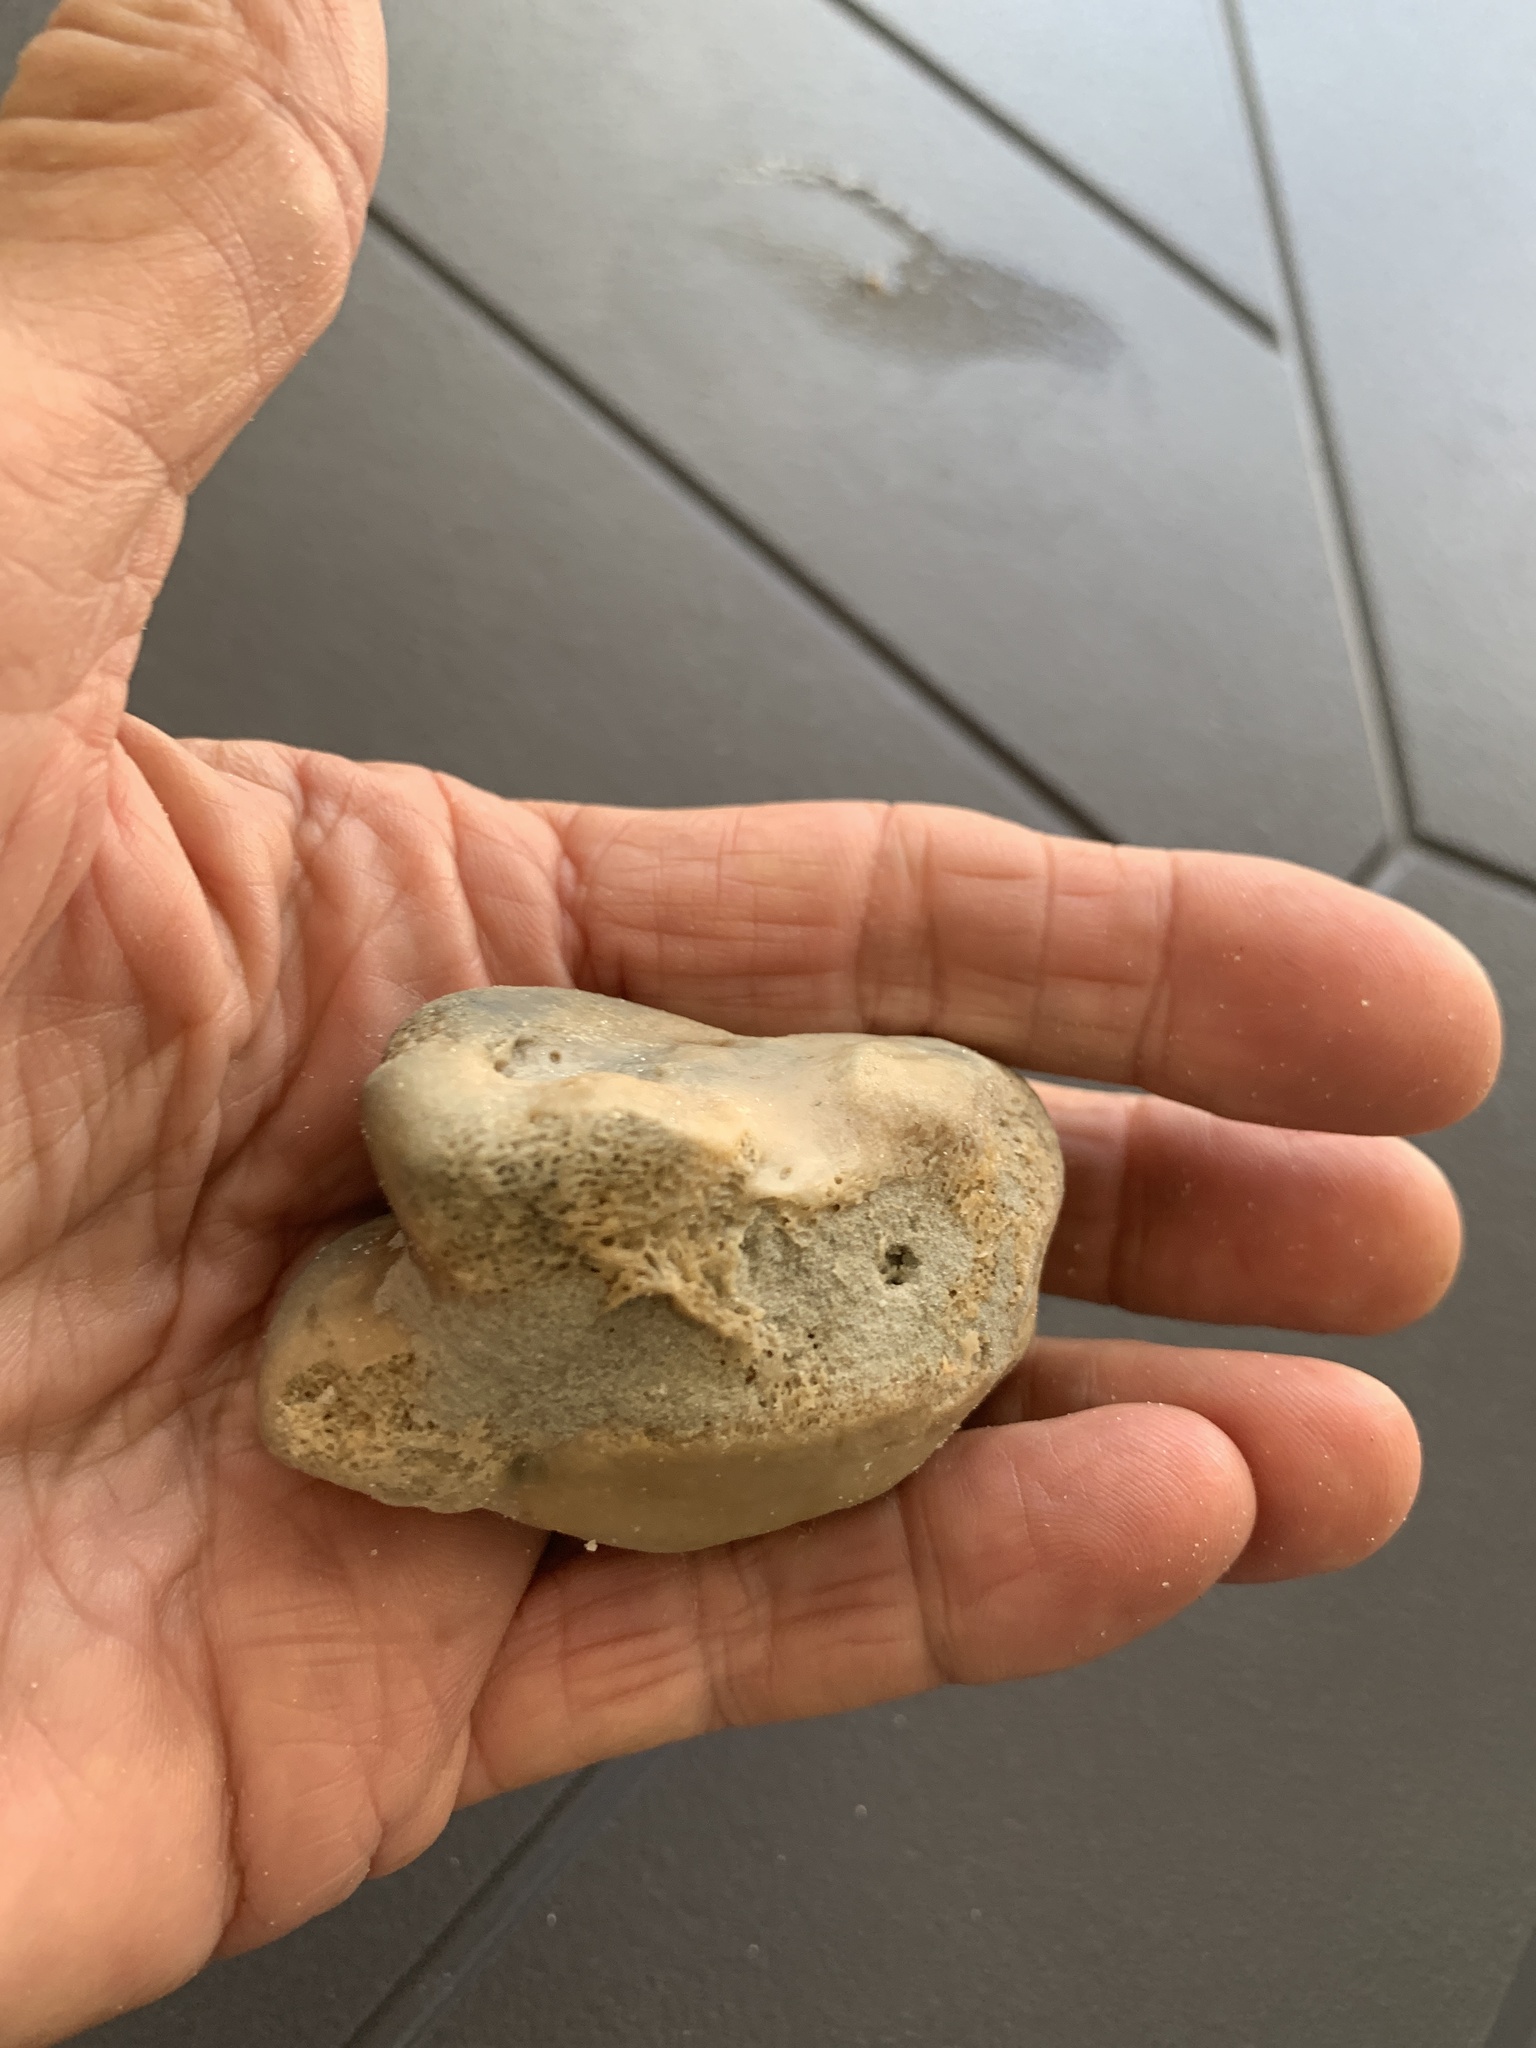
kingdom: Animalia
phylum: Chordata
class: Mammalia
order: Artiodactyla
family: Suidae
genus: Sus
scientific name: Sus scrofa
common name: Wild boar
